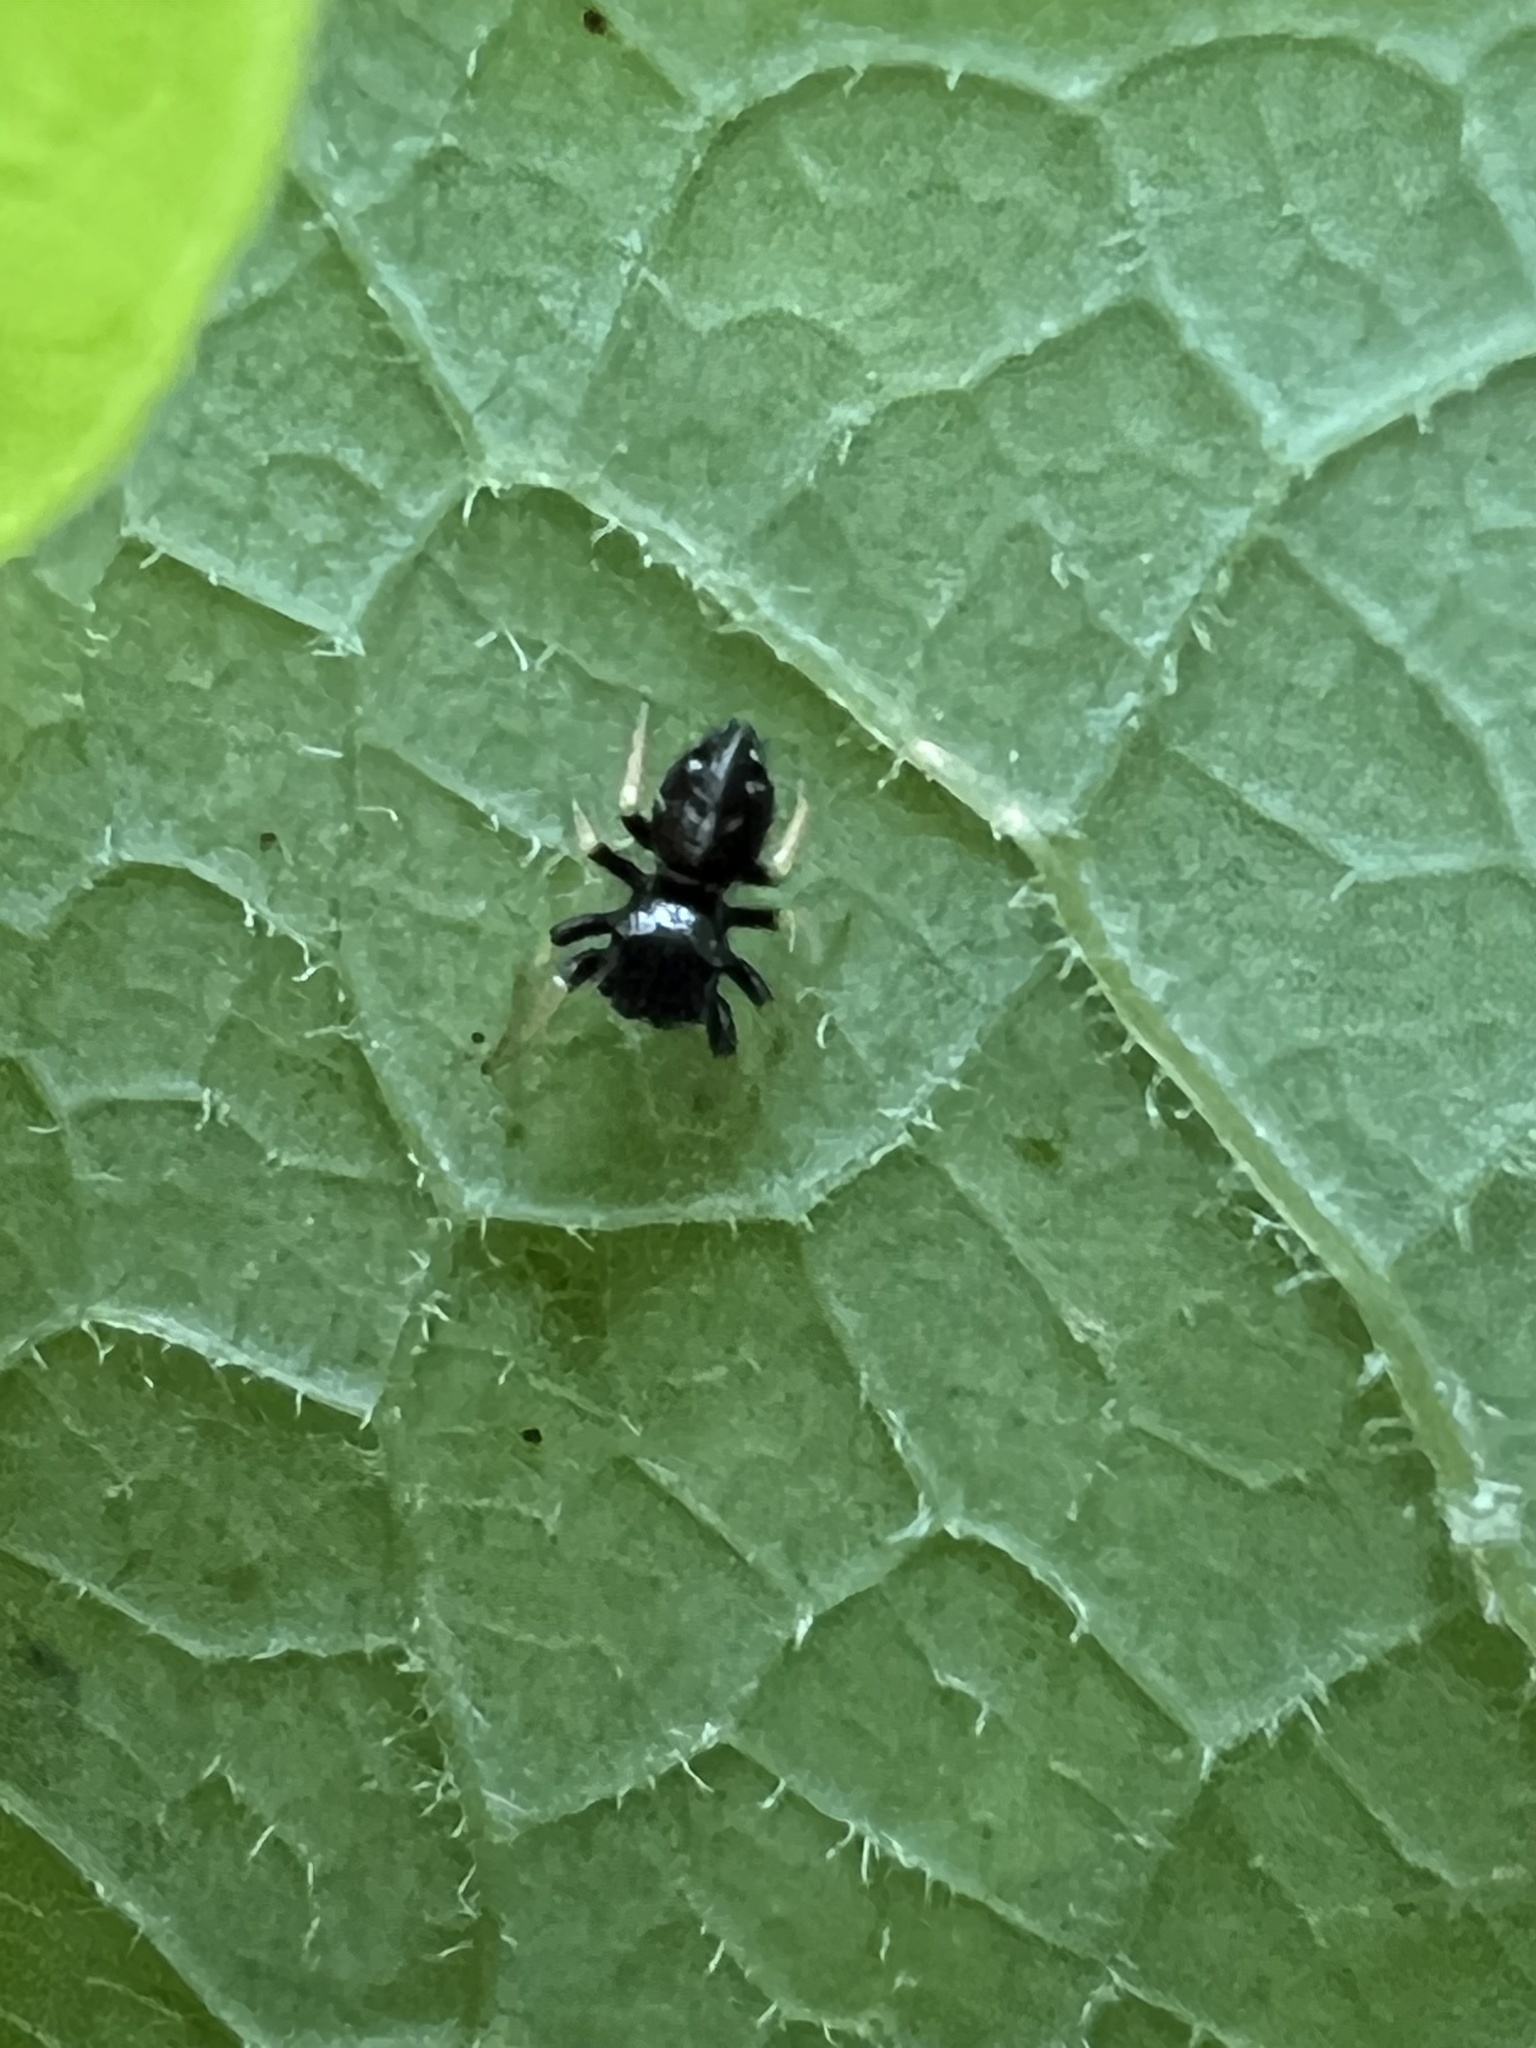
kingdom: Animalia
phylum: Arthropoda
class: Arachnida
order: Araneae
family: Salticidae
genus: Phidippus
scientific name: Phidippus whitmani
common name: Whitman's jumping spider
